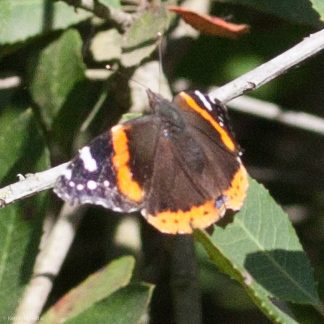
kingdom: Animalia
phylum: Arthropoda
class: Insecta
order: Lepidoptera
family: Nymphalidae
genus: Vanessa
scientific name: Vanessa atalanta
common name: Red admiral
